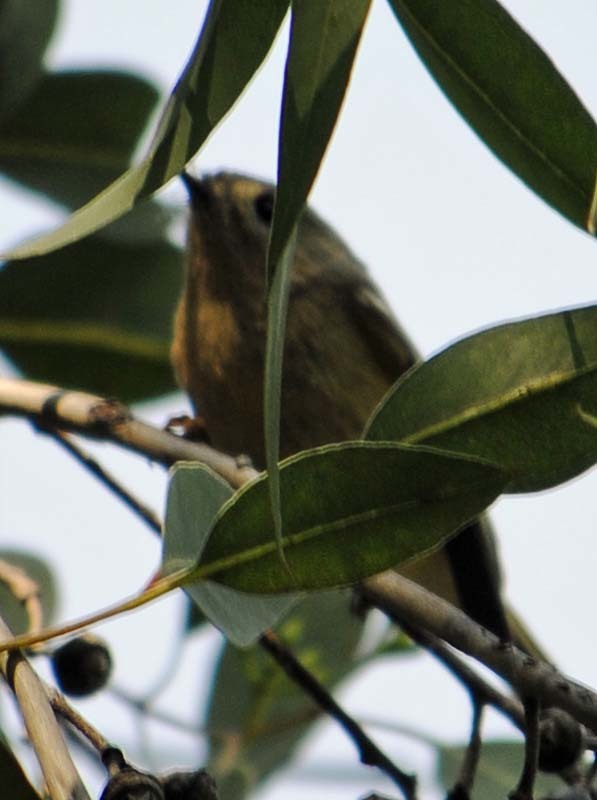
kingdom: Animalia
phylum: Chordata
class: Aves
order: Passeriformes
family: Regulidae
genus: Regulus
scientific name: Regulus calendula
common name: Ruby-crowned kinglet
